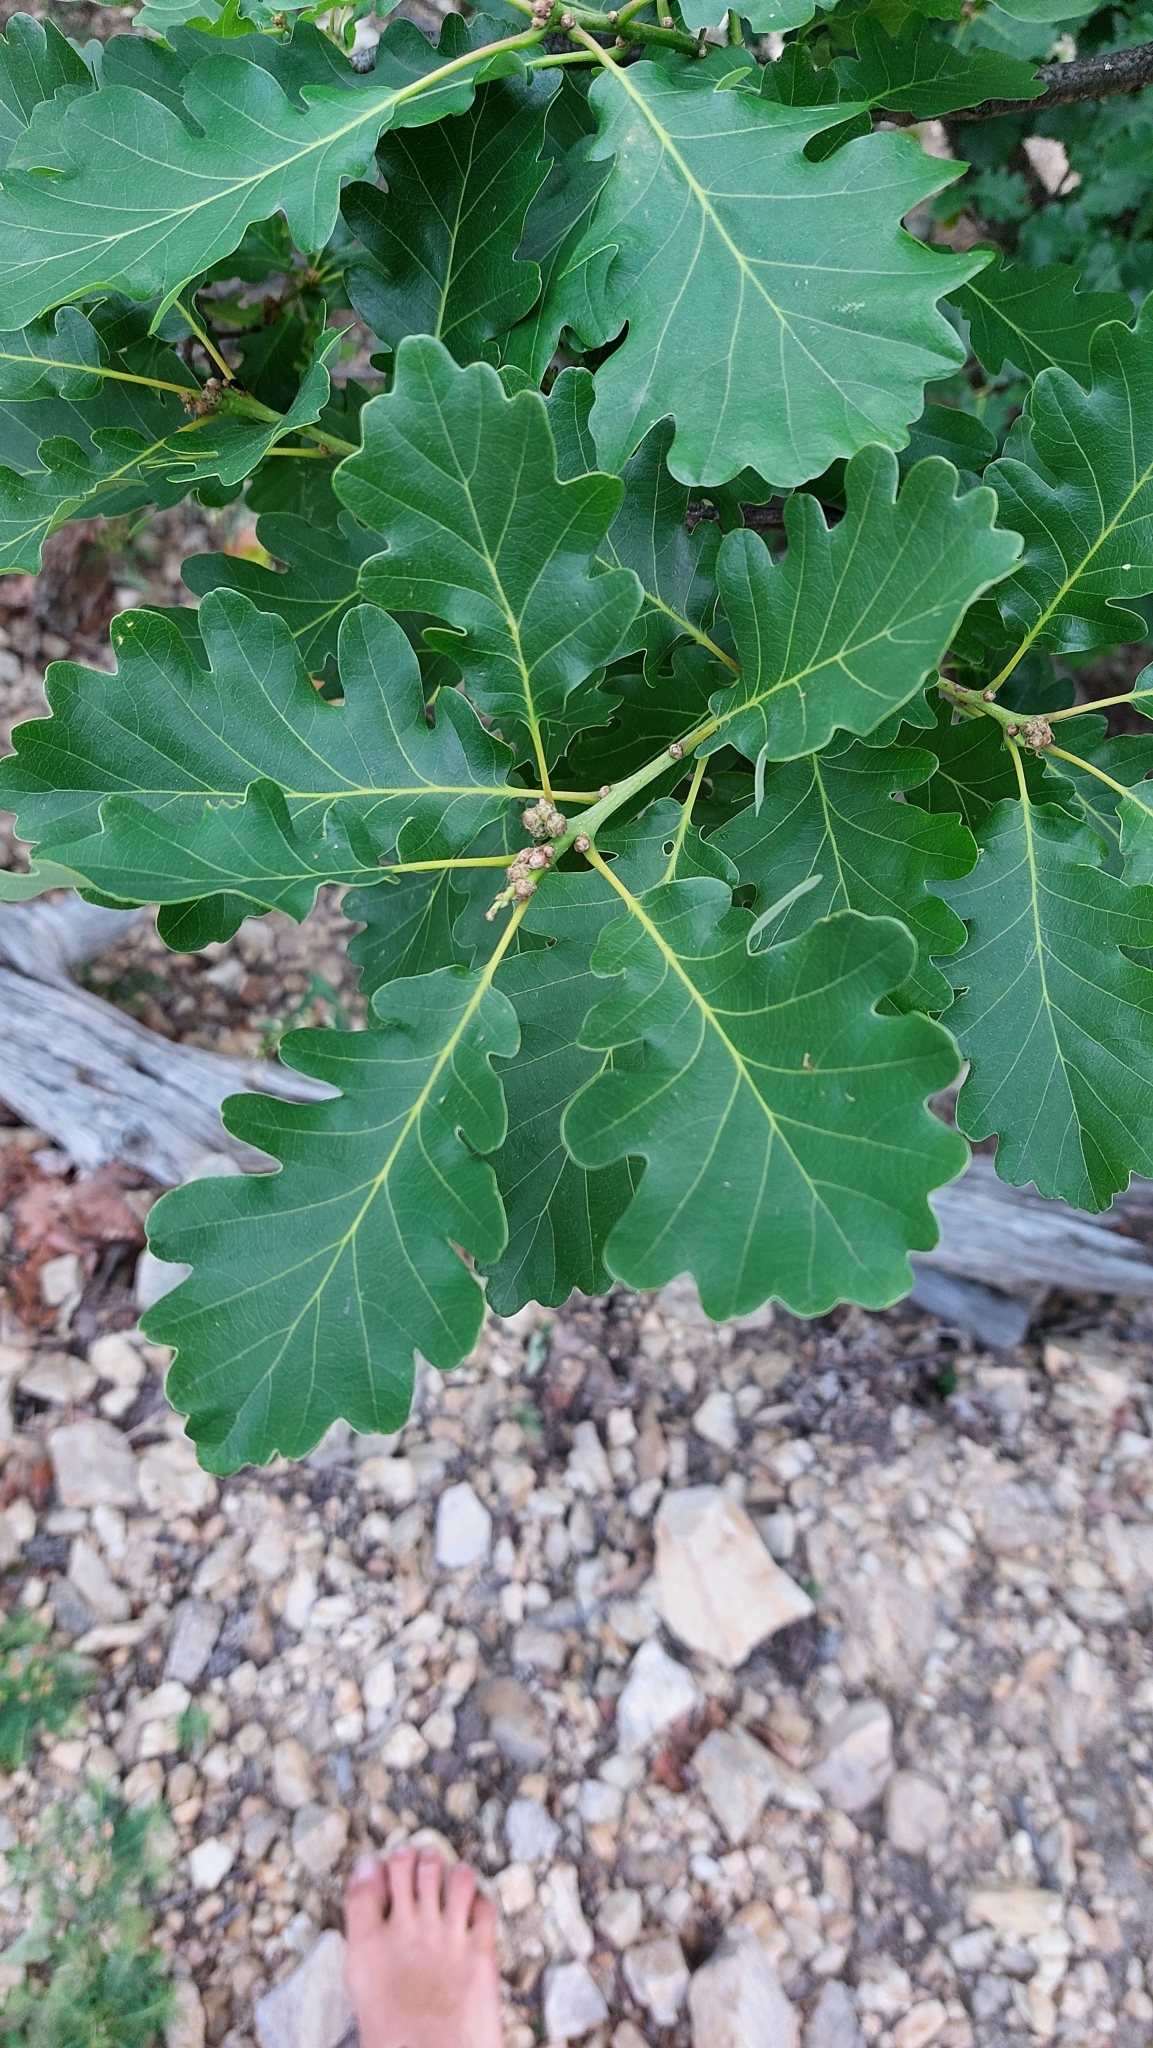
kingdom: Plantae
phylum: Tracheophyta
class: Magnoliopsida
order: Fagales
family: Fagaceae
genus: Quercus
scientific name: Quercus petraea
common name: Sessile oak
